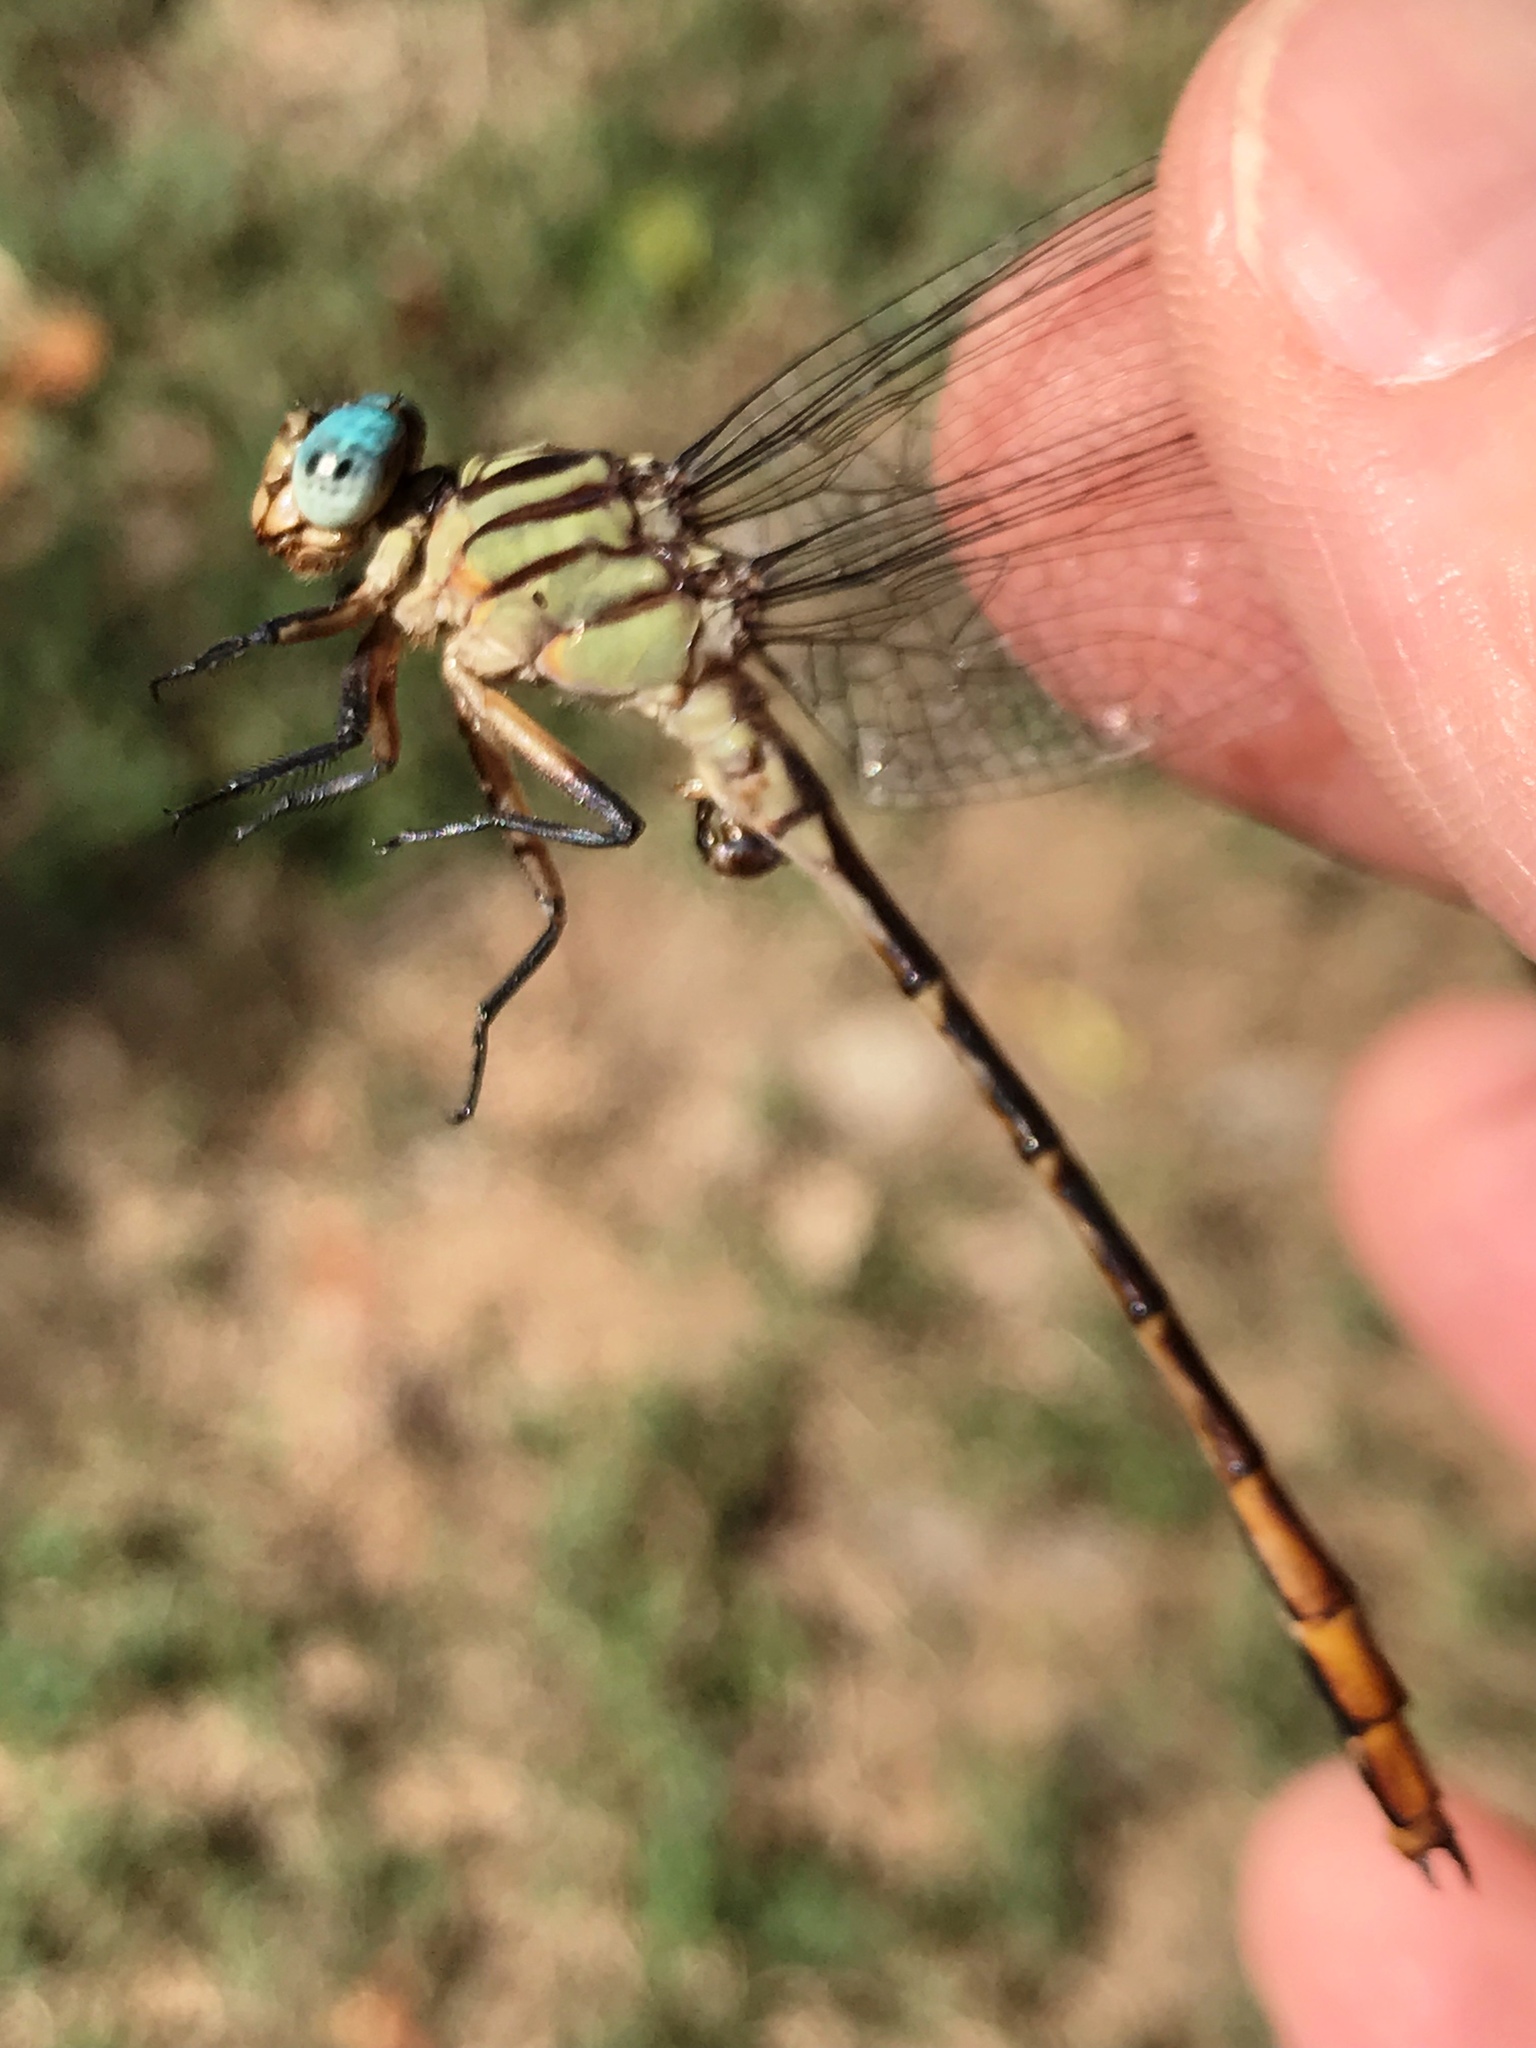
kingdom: Animalia
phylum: Arthropoda
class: Insecta
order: Odonata
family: Gomphidae
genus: Stylurus
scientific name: Stylurus plagiatus
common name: Russet-tipped clubtail
